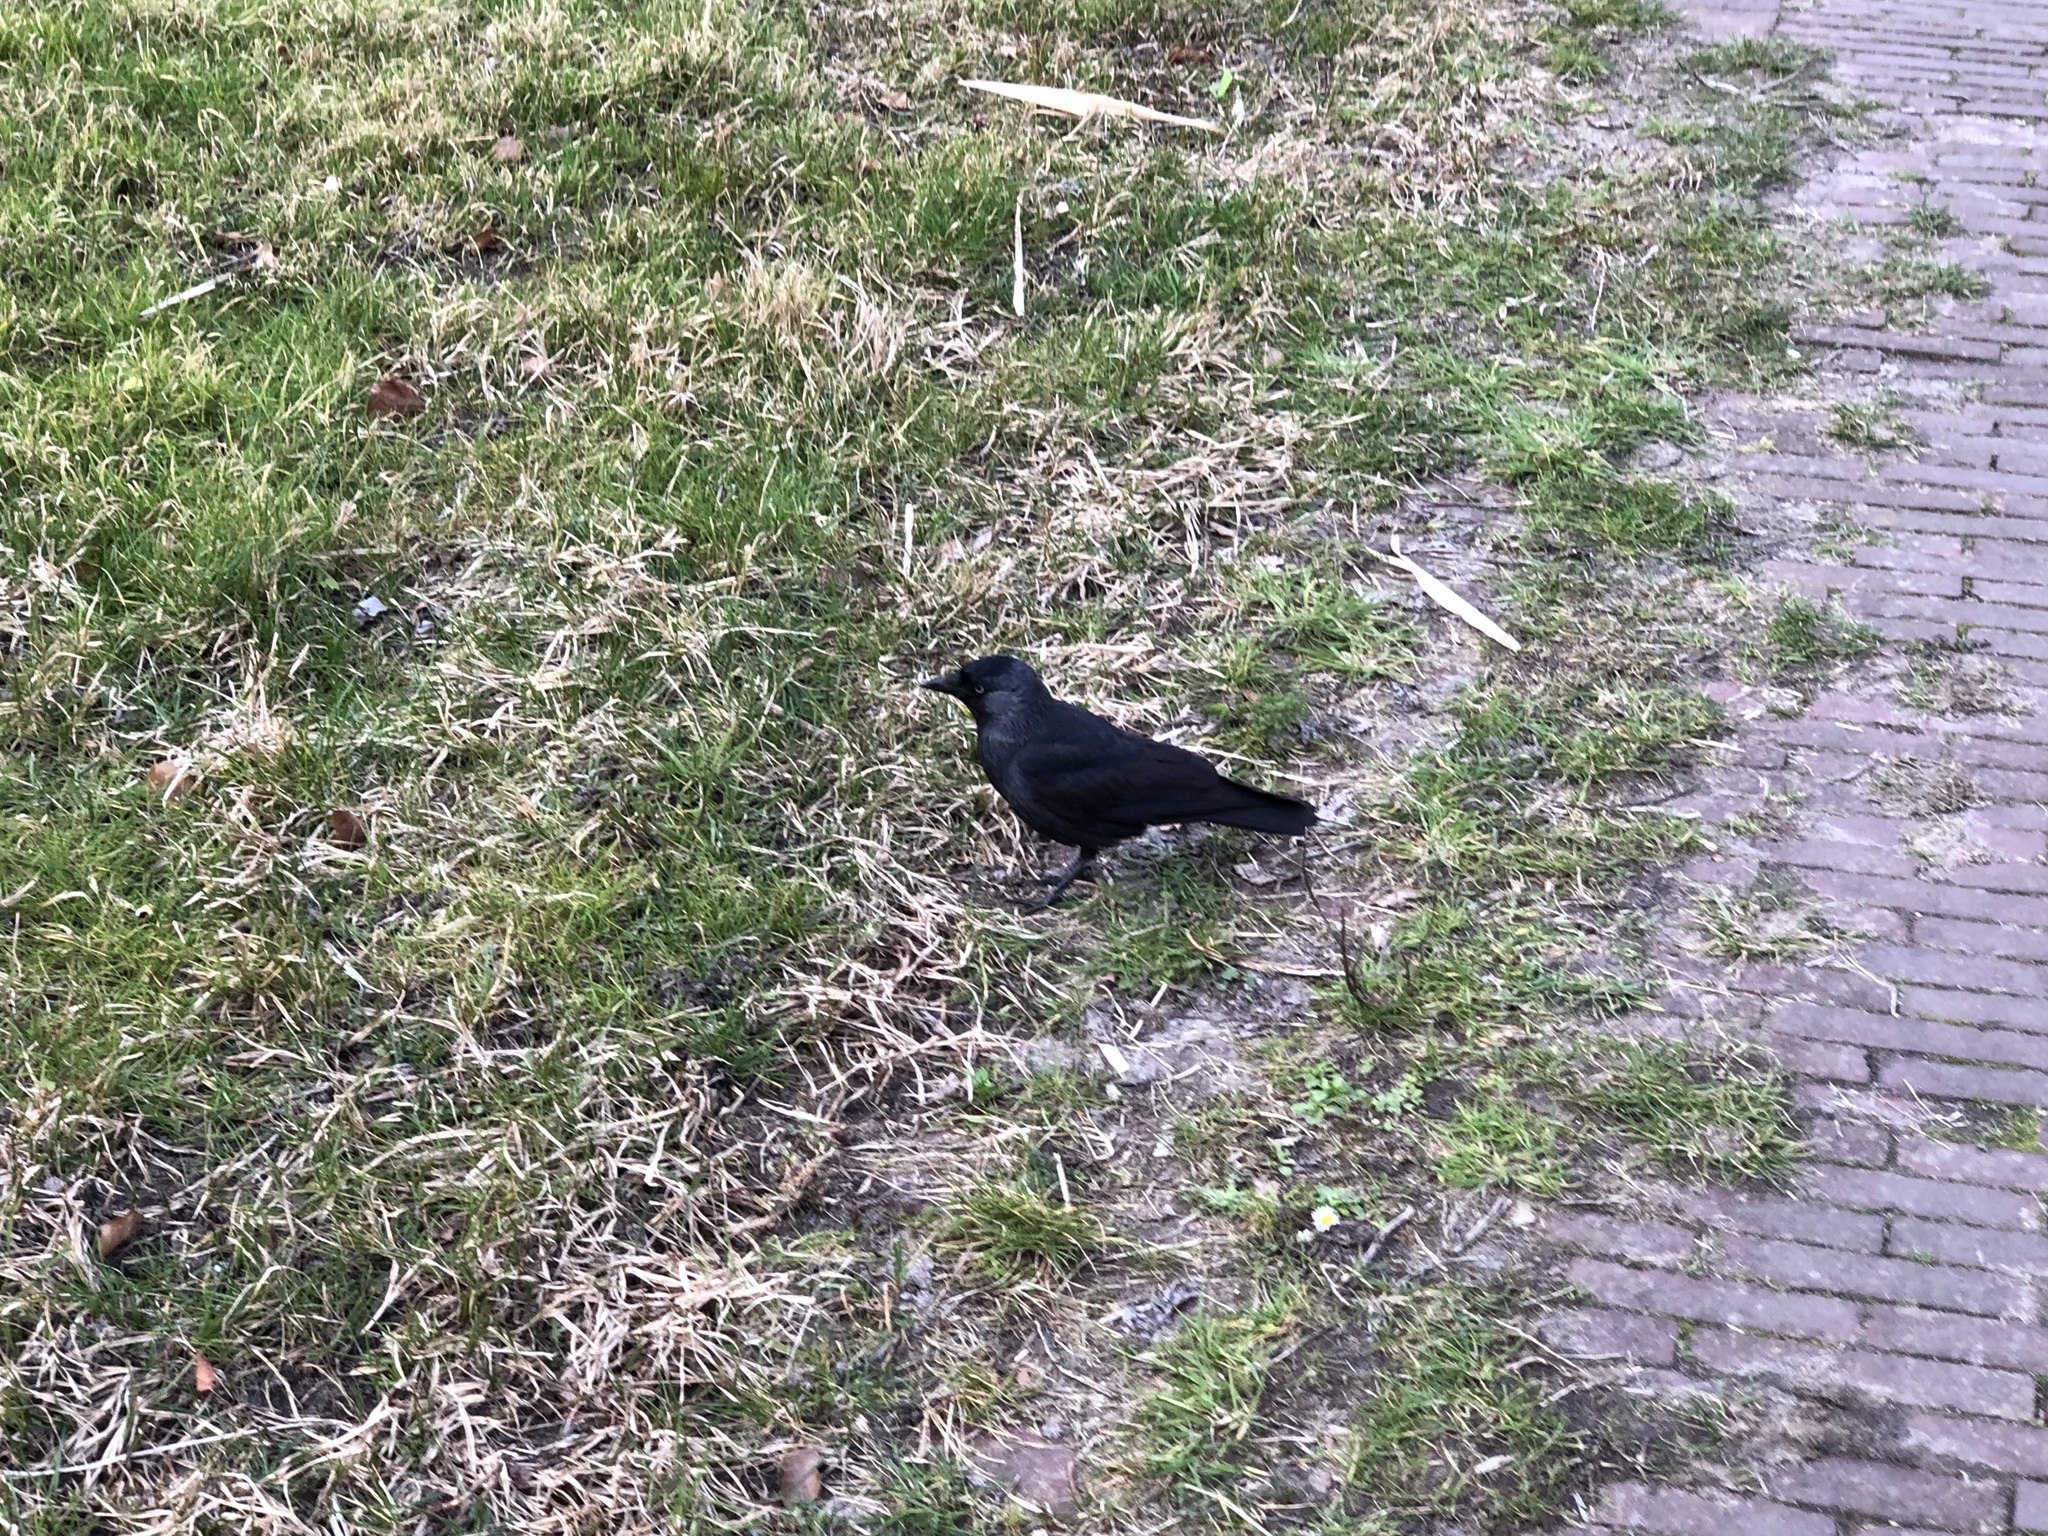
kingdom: Animalia
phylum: Chordata
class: Aves
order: Passeriformes
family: Corvidae
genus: Coloeus
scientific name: Coloeus monedula
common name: Western jackdaw
